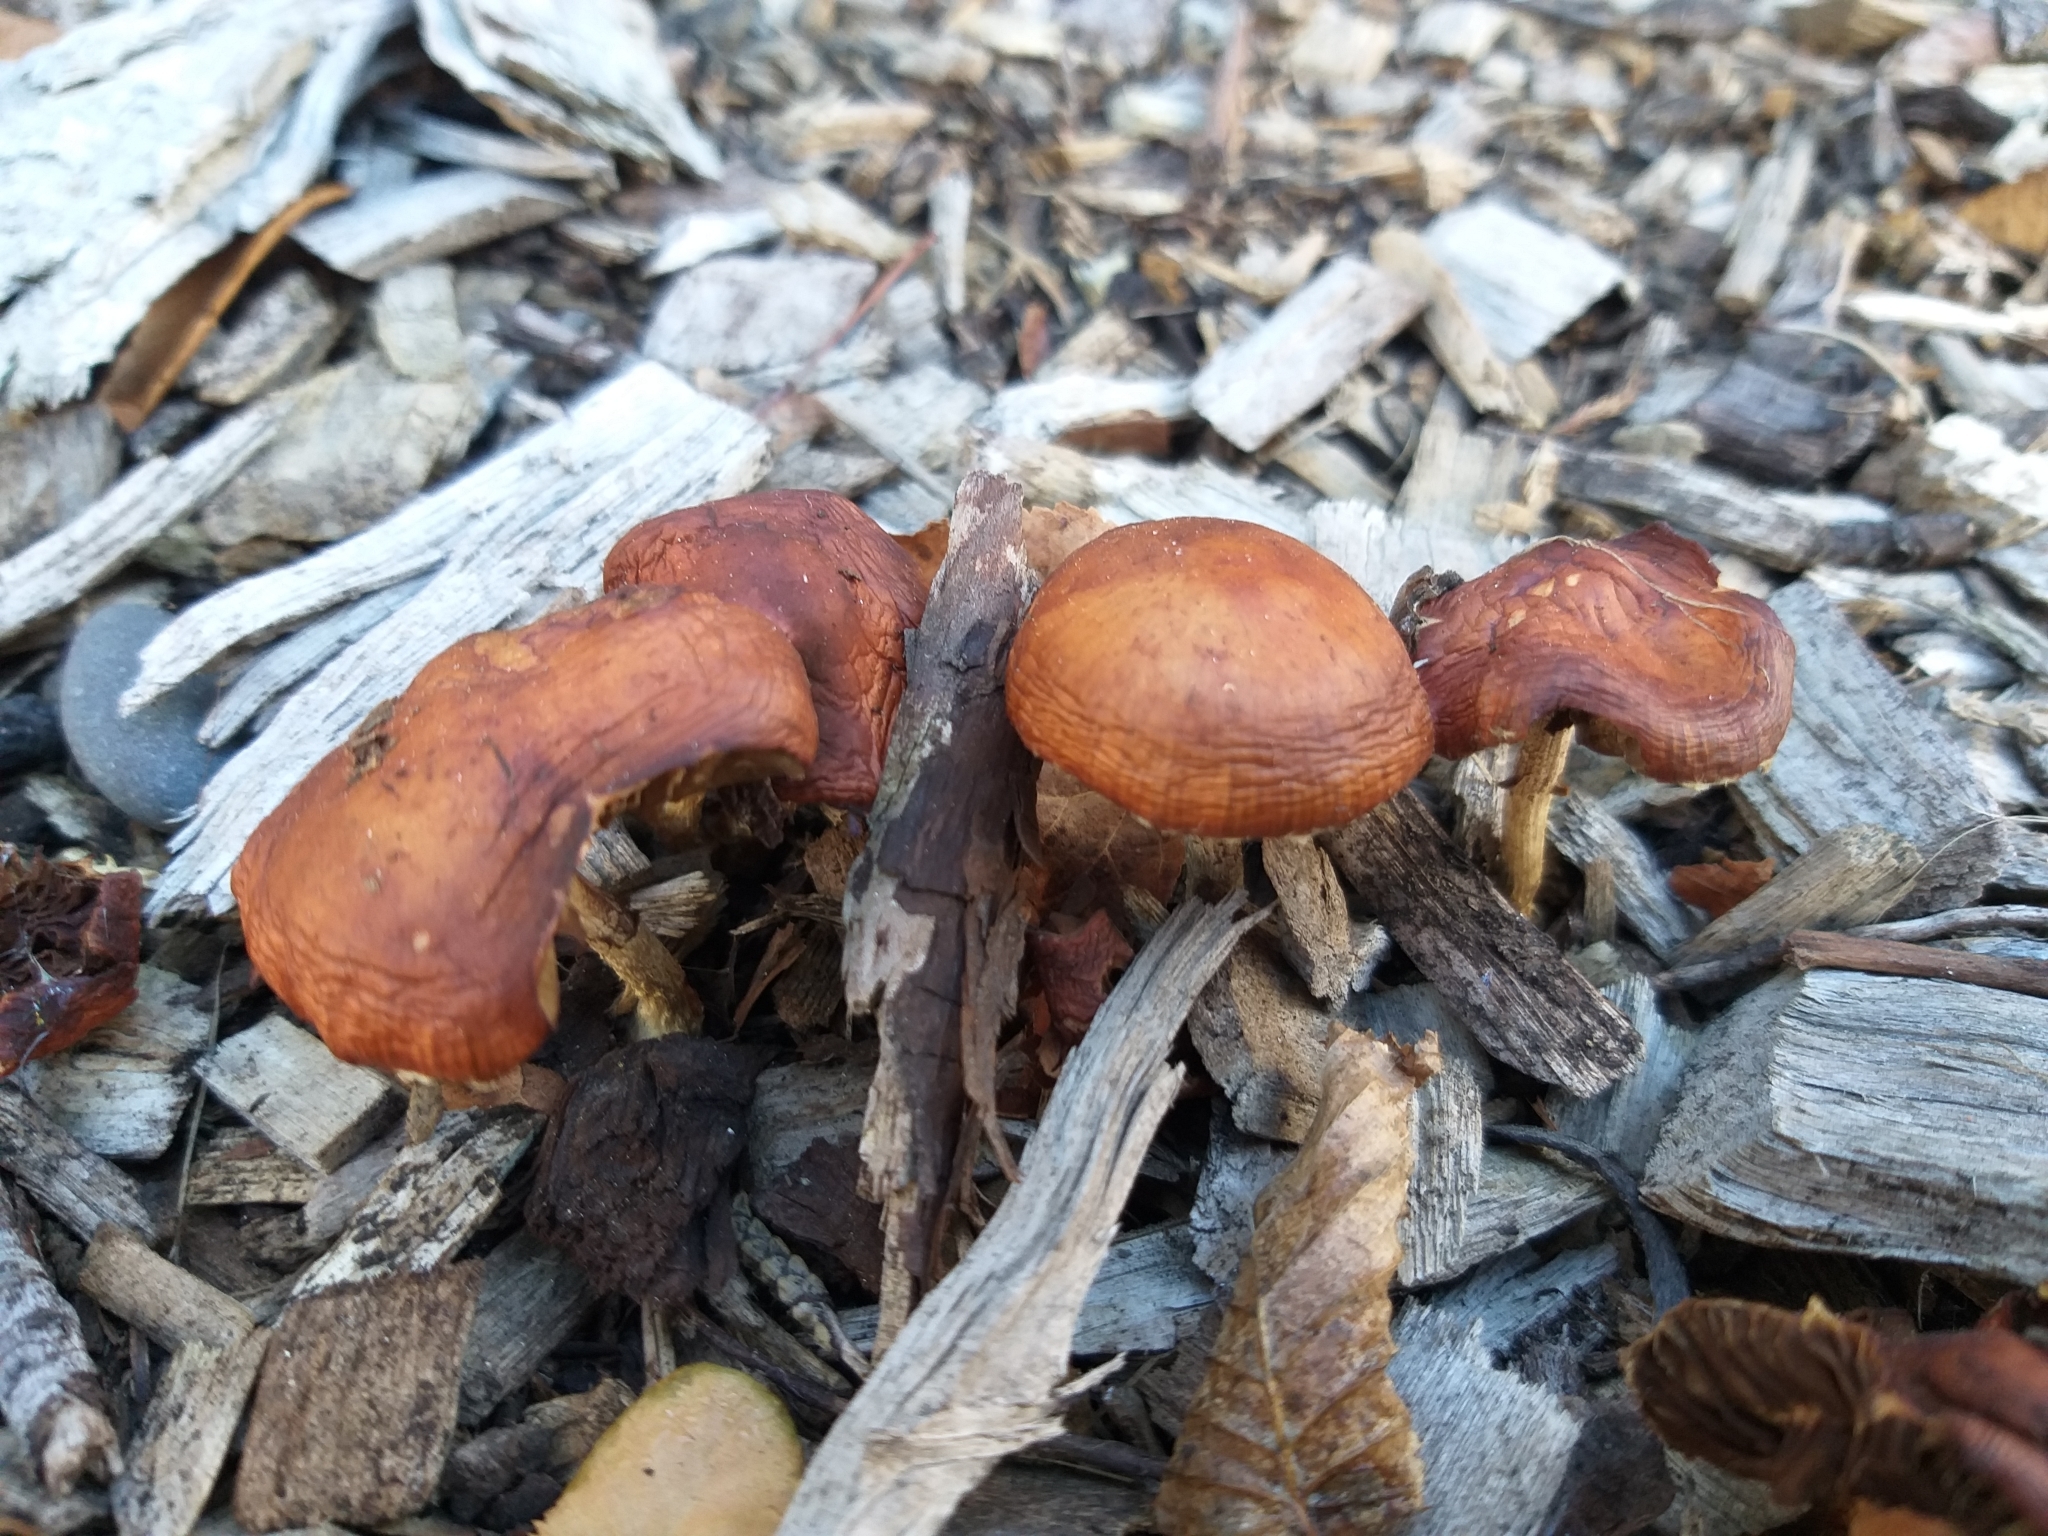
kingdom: Fungi
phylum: Basidiomycota
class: Agaricomycetes
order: Agaricales
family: Strophariaceae
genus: Leratiomyces
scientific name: Leratiomyces ceres
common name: Redlead roundhead
